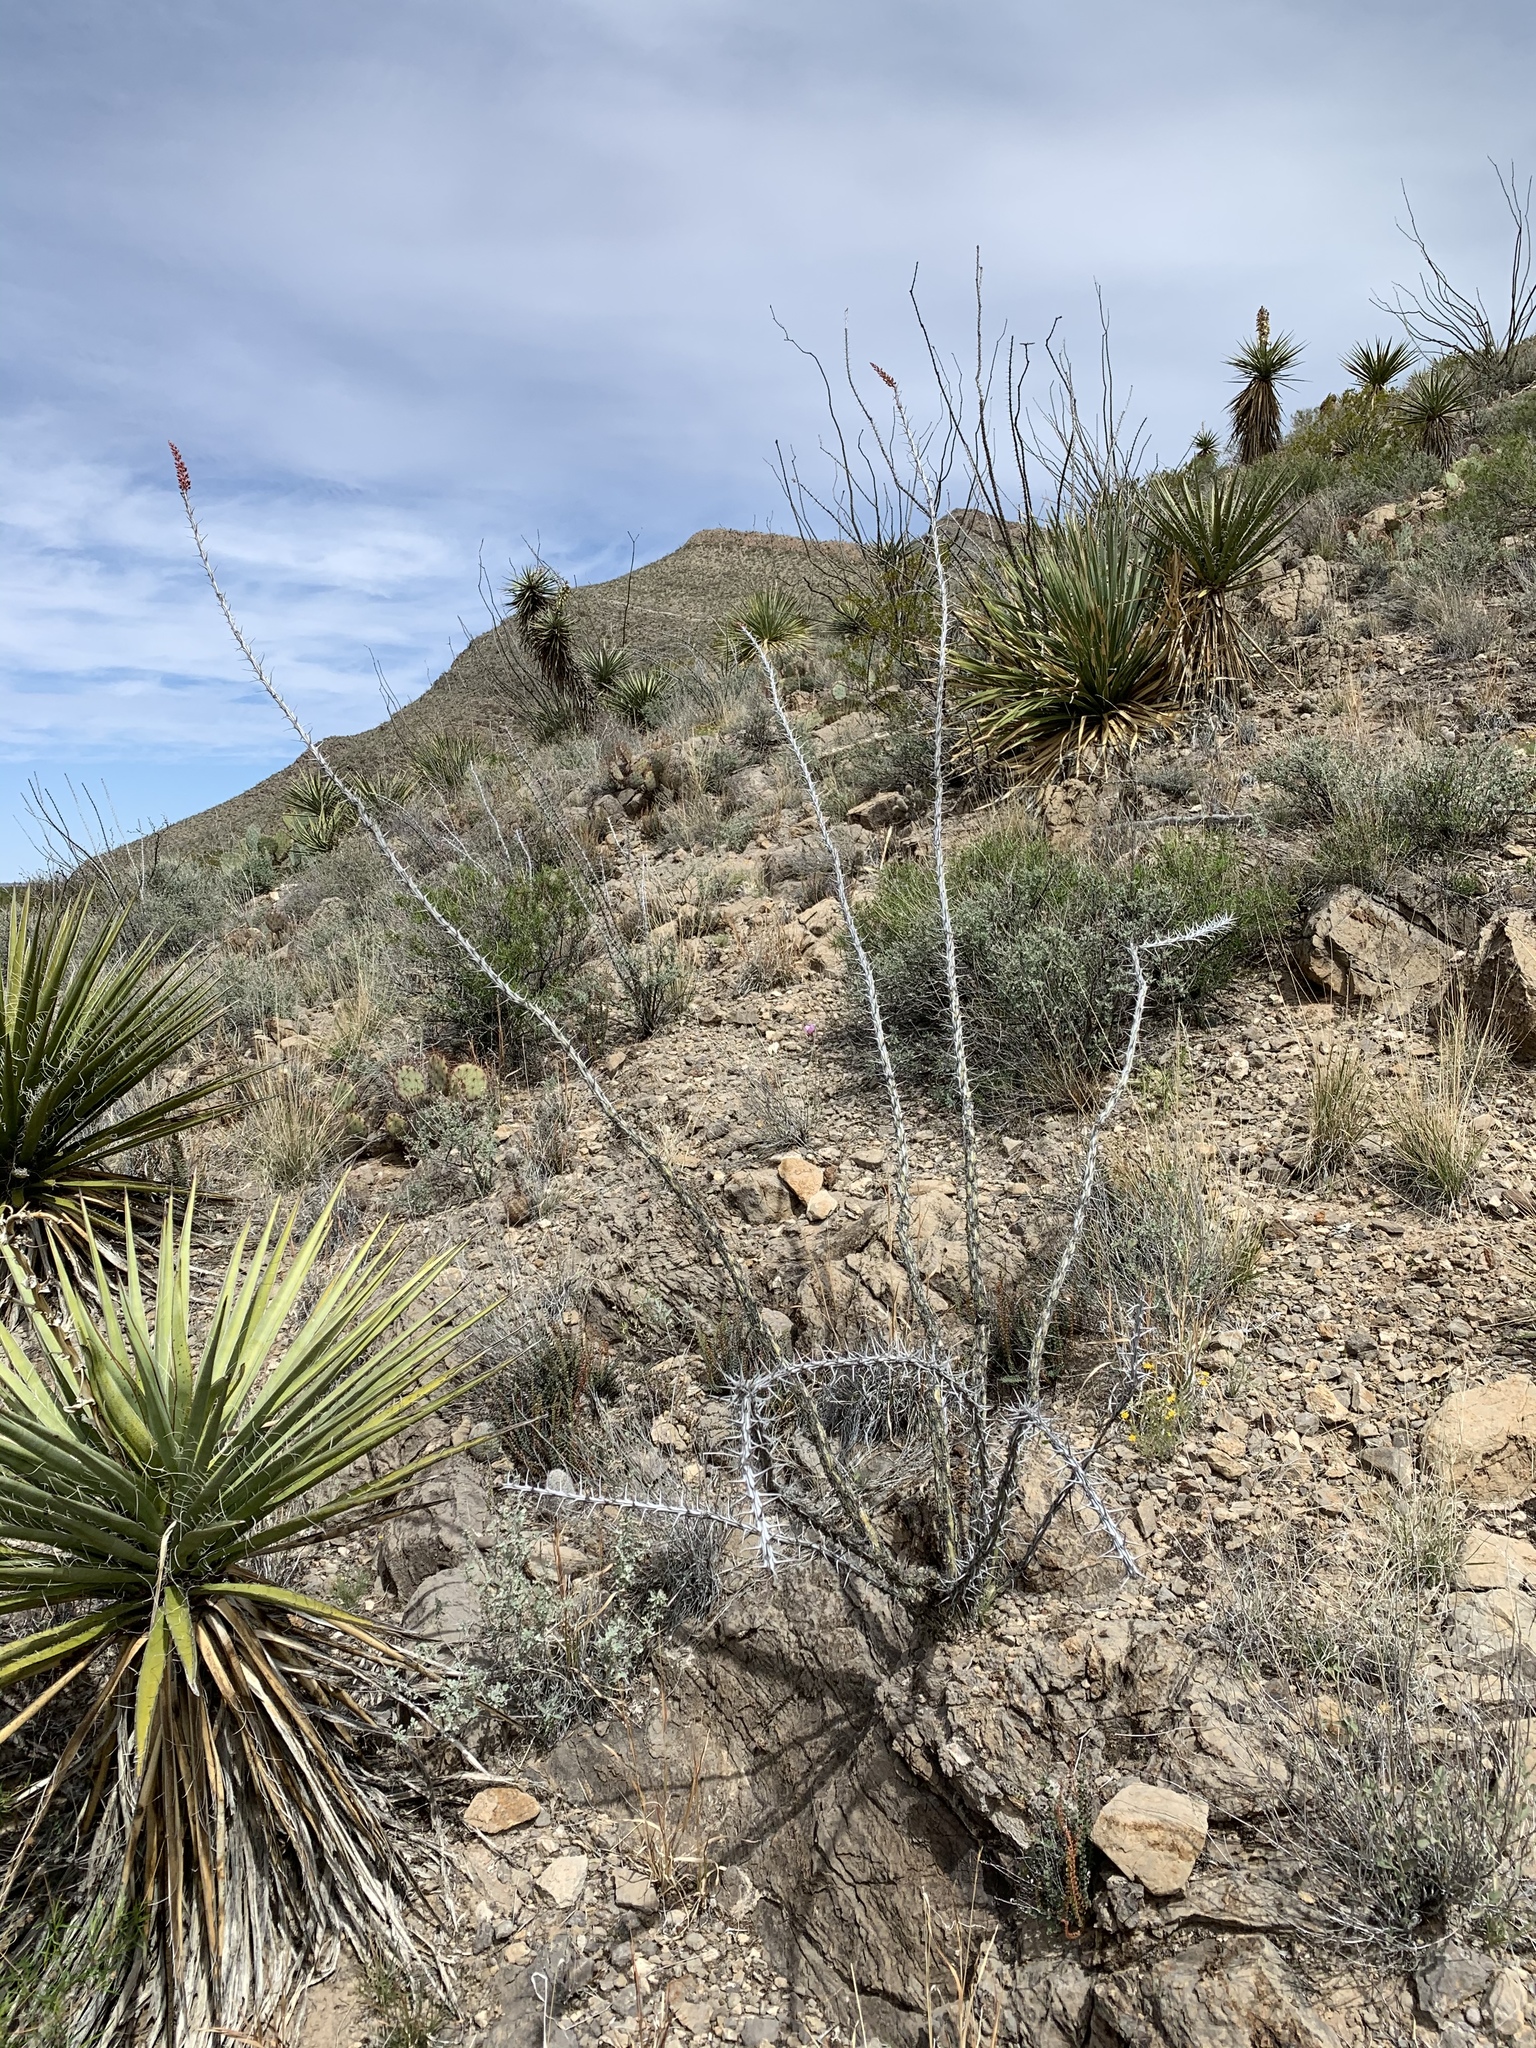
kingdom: Plantae
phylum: Tracheophyta
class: Magnoliopsida
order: Ericales
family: Fouquieriaceae
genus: Fouquieria
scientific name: Fouquieria splendens
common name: Vine-cactus
